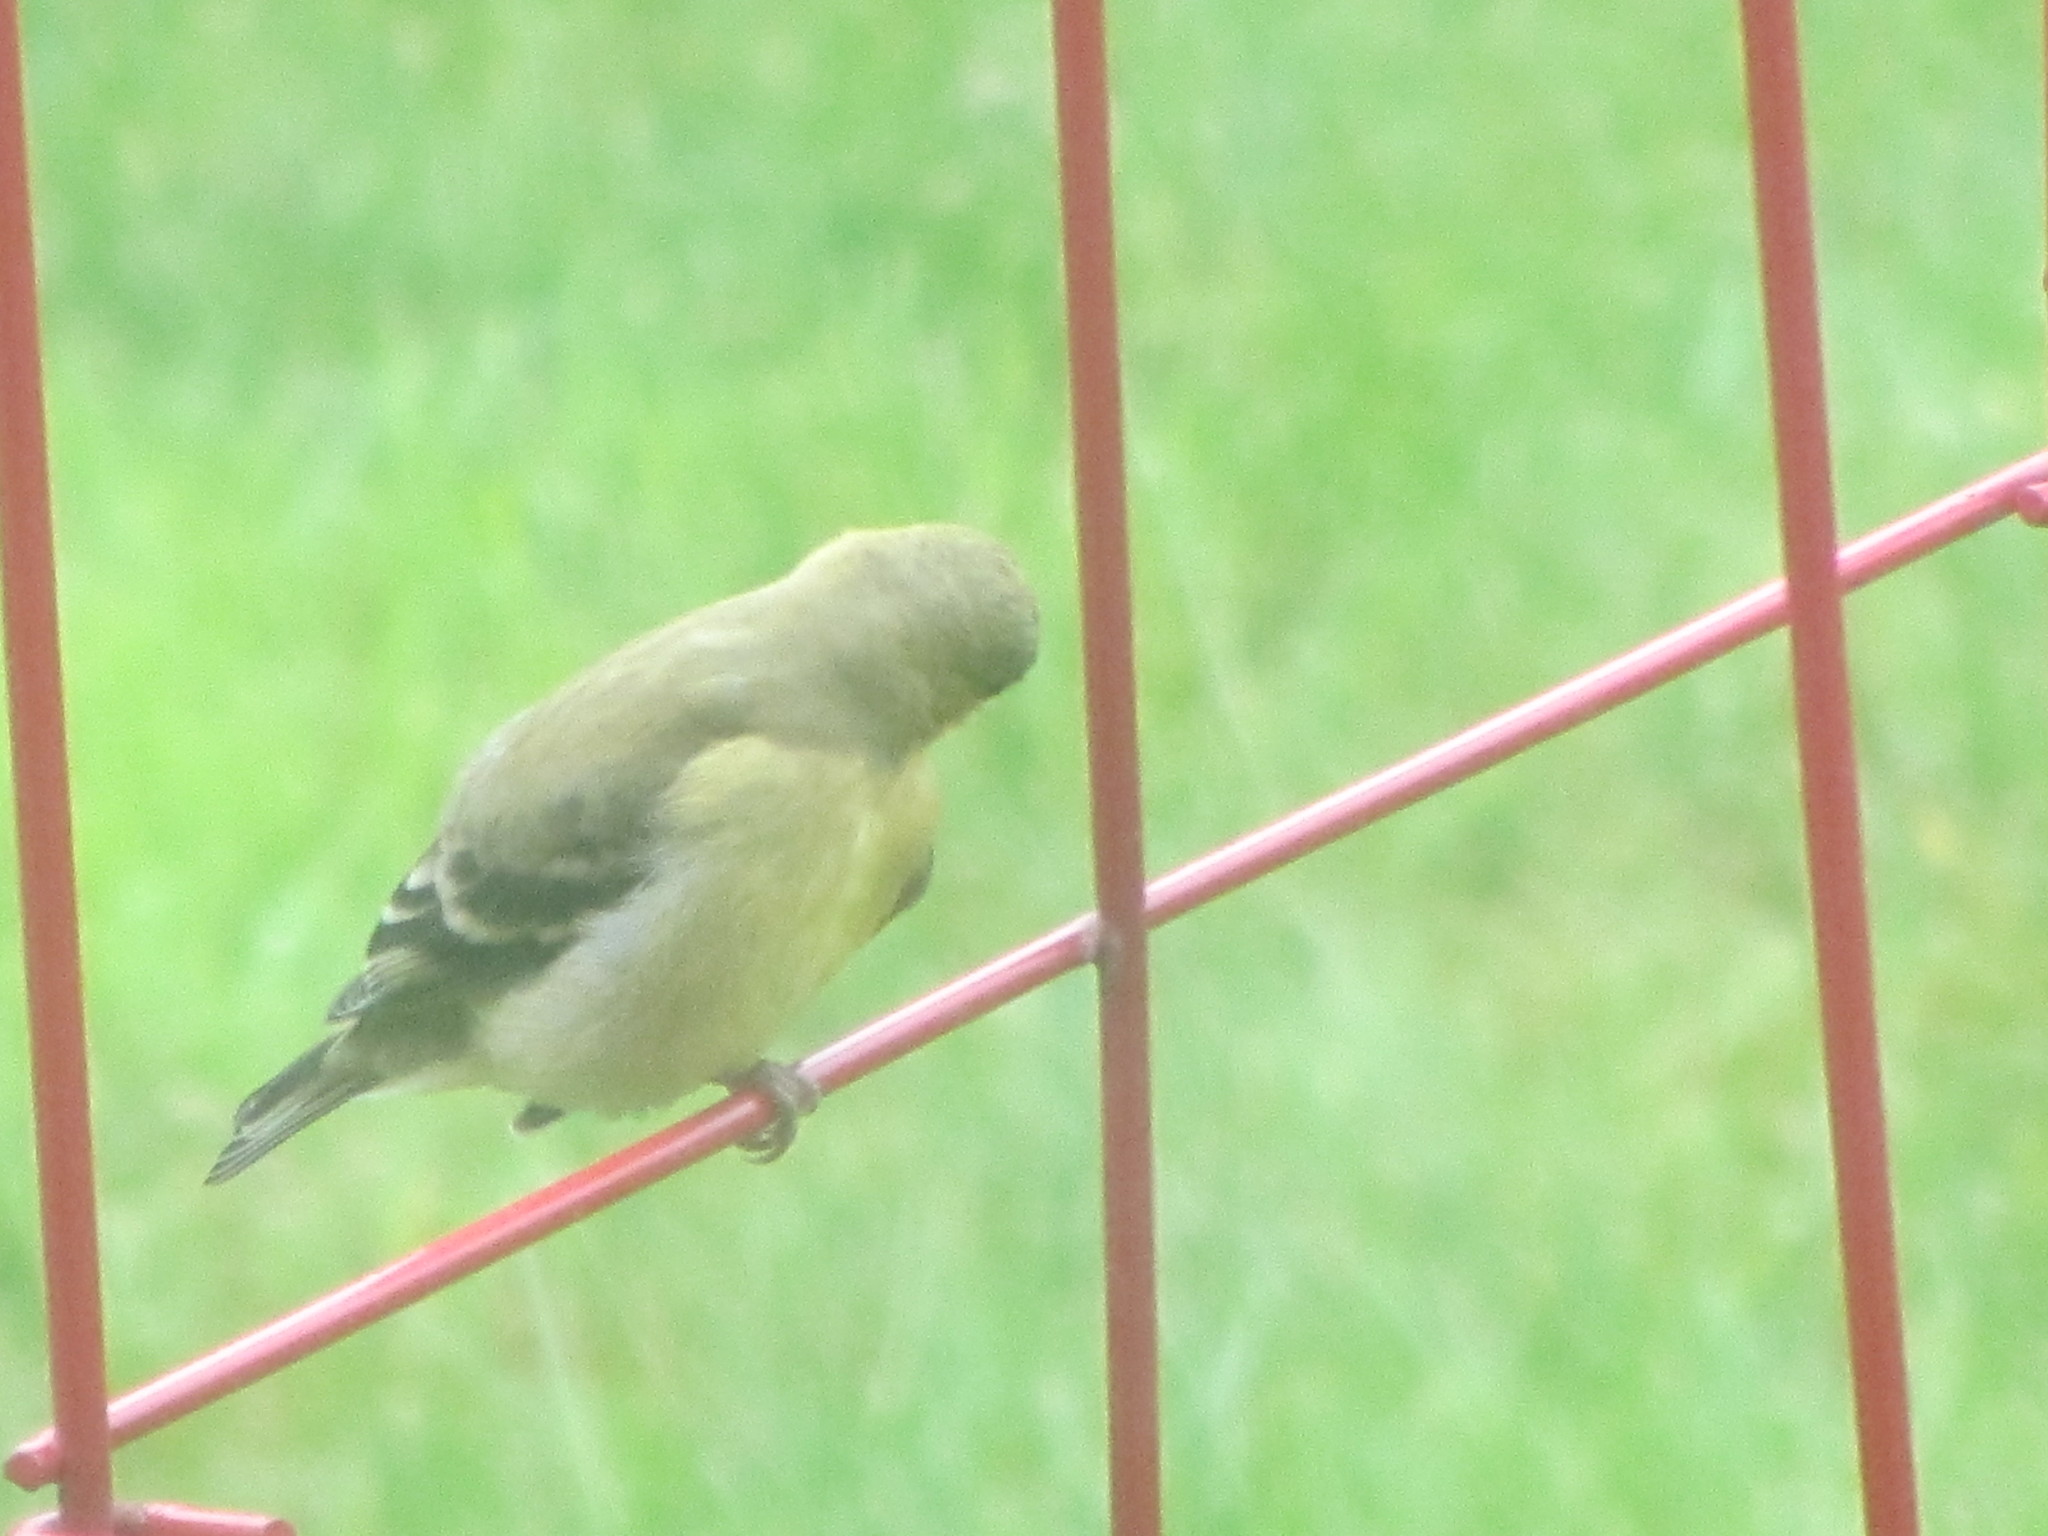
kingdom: Animalia
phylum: Chordata
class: Aves
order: Passeriformes
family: Fringillidae
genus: Spinus
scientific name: Spinus psaltria
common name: Lesser goldfinch
